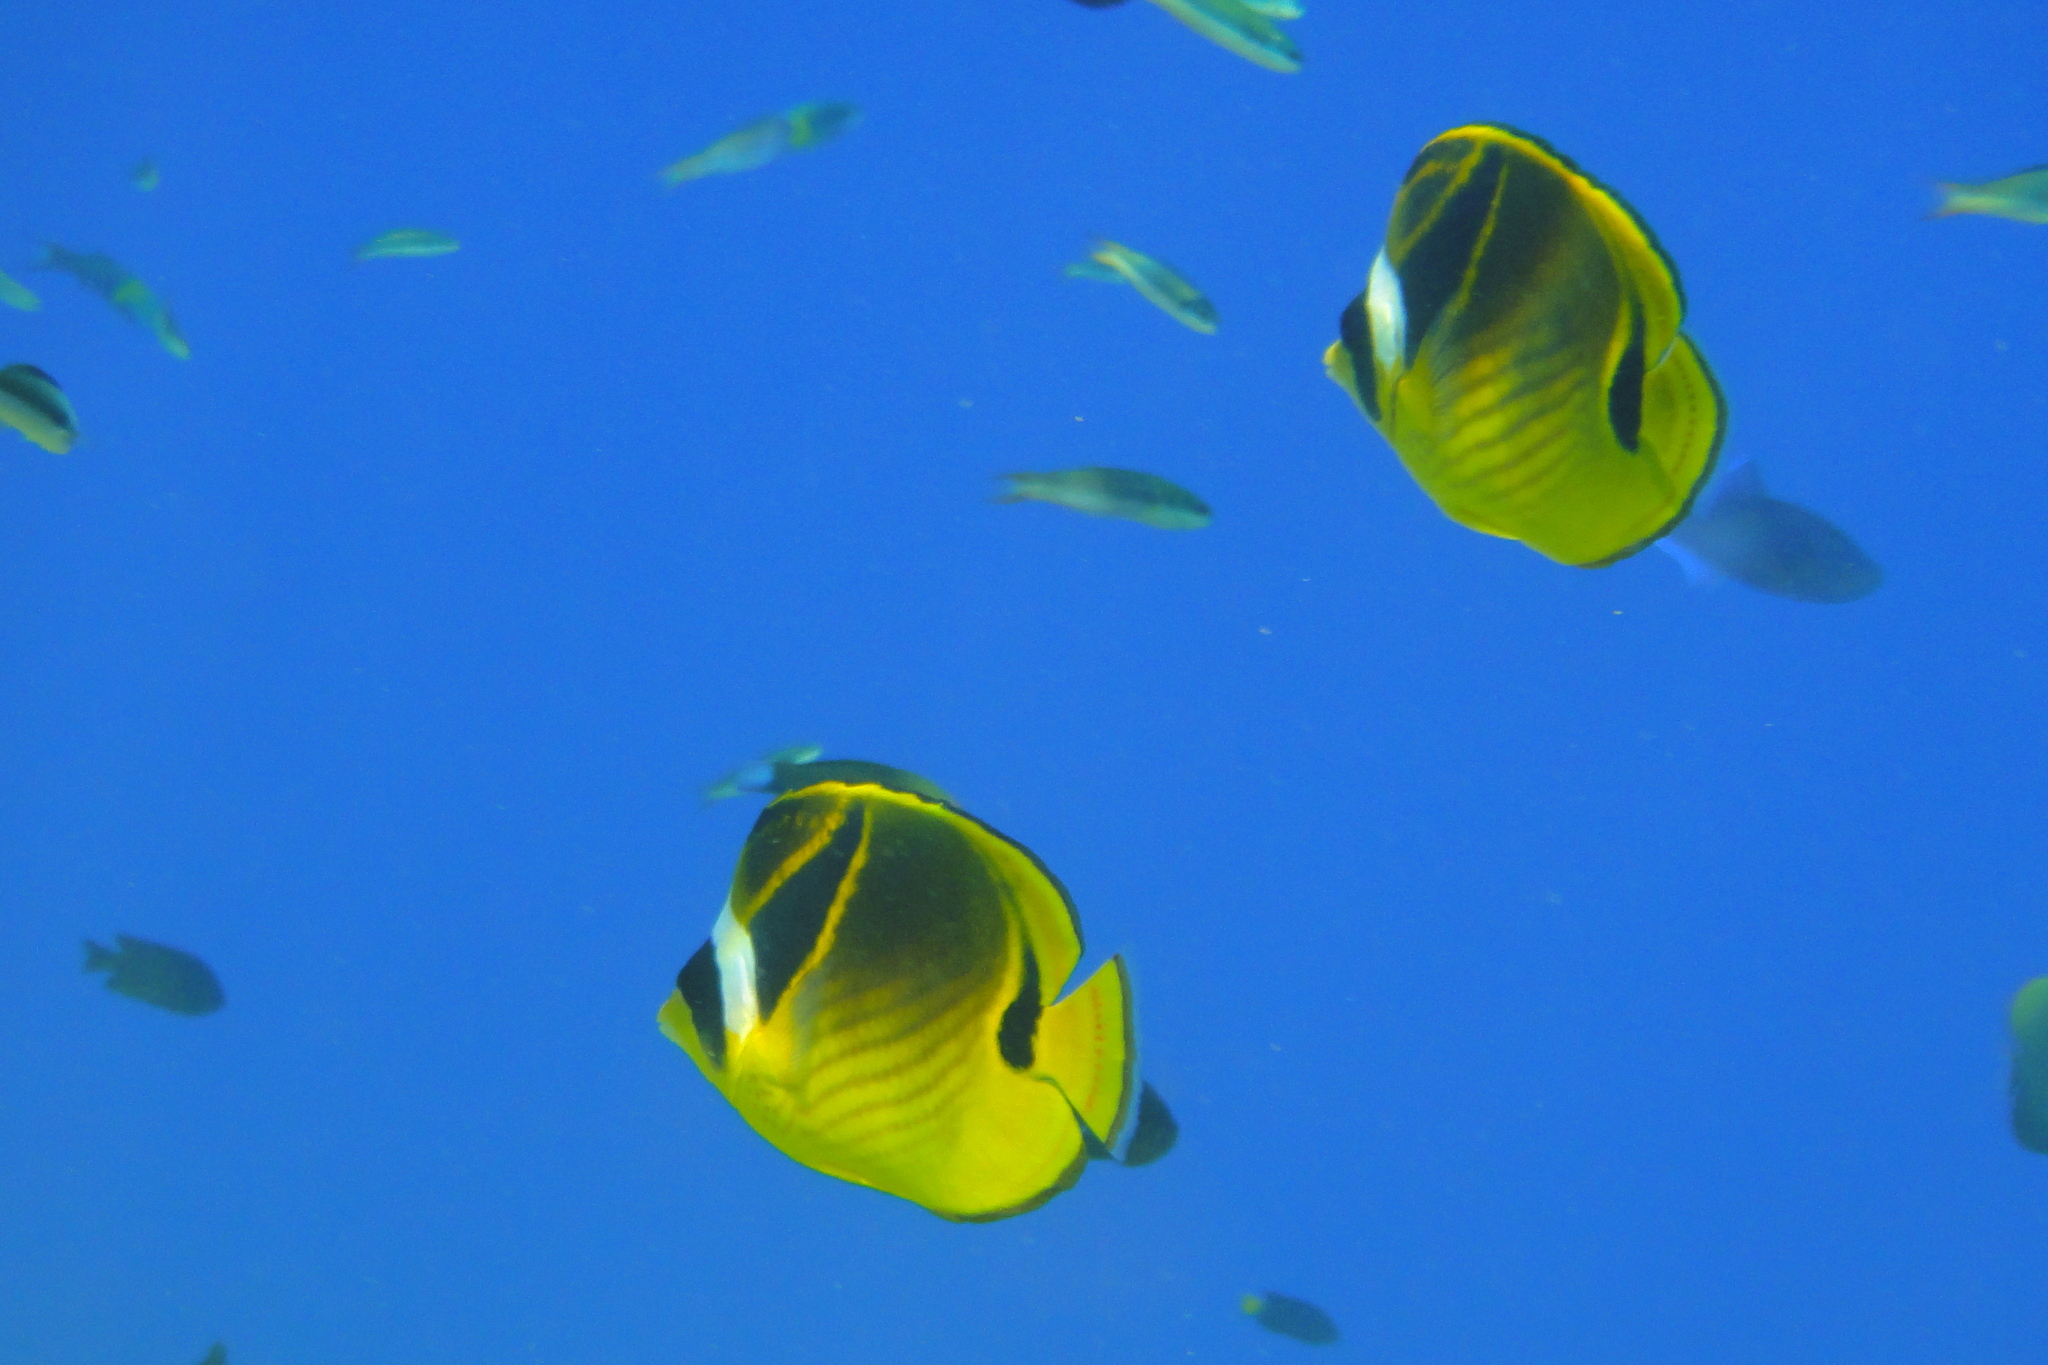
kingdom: Animalia
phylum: Chordata
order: Perciformes
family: Chaetodontidae
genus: Chaetodon
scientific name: Chaetodon lunula
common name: Raccoon butterflyfish
